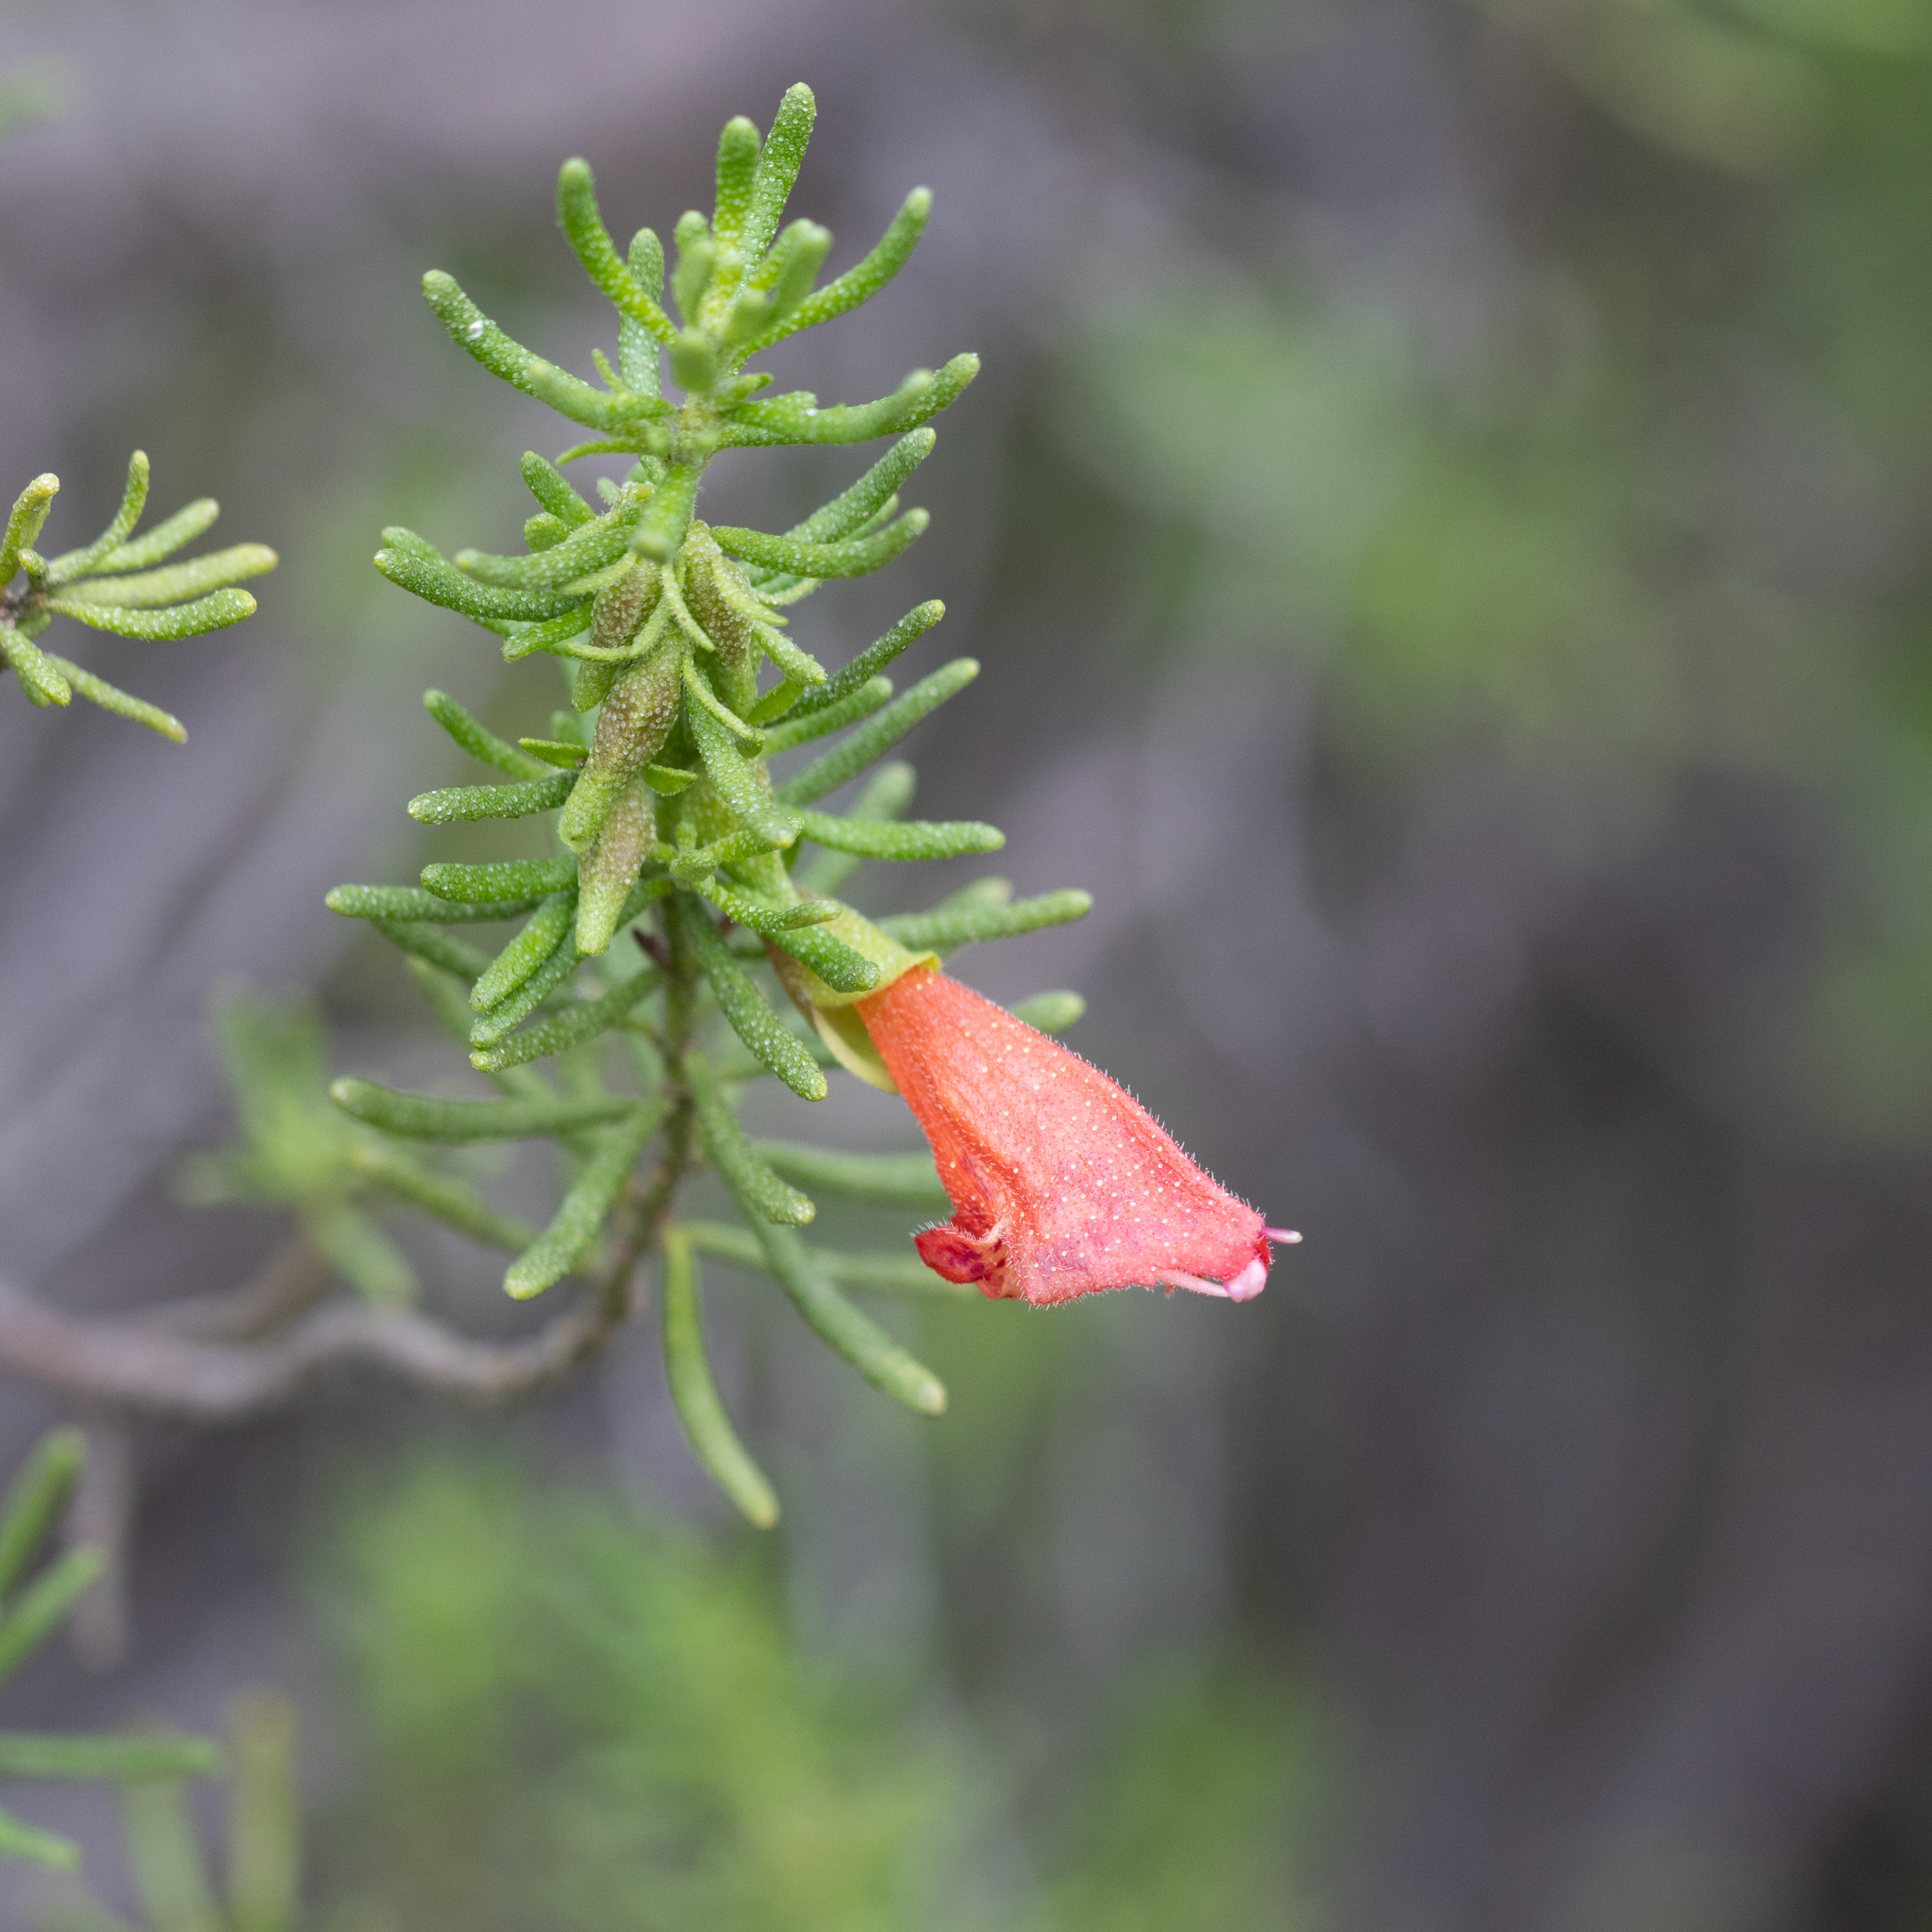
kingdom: Plantae
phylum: Tracheophyta
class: Magnoliopsida
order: Lamiales
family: Lamiaceae
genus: Prostanthera
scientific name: Prostanthera aspalathoides
